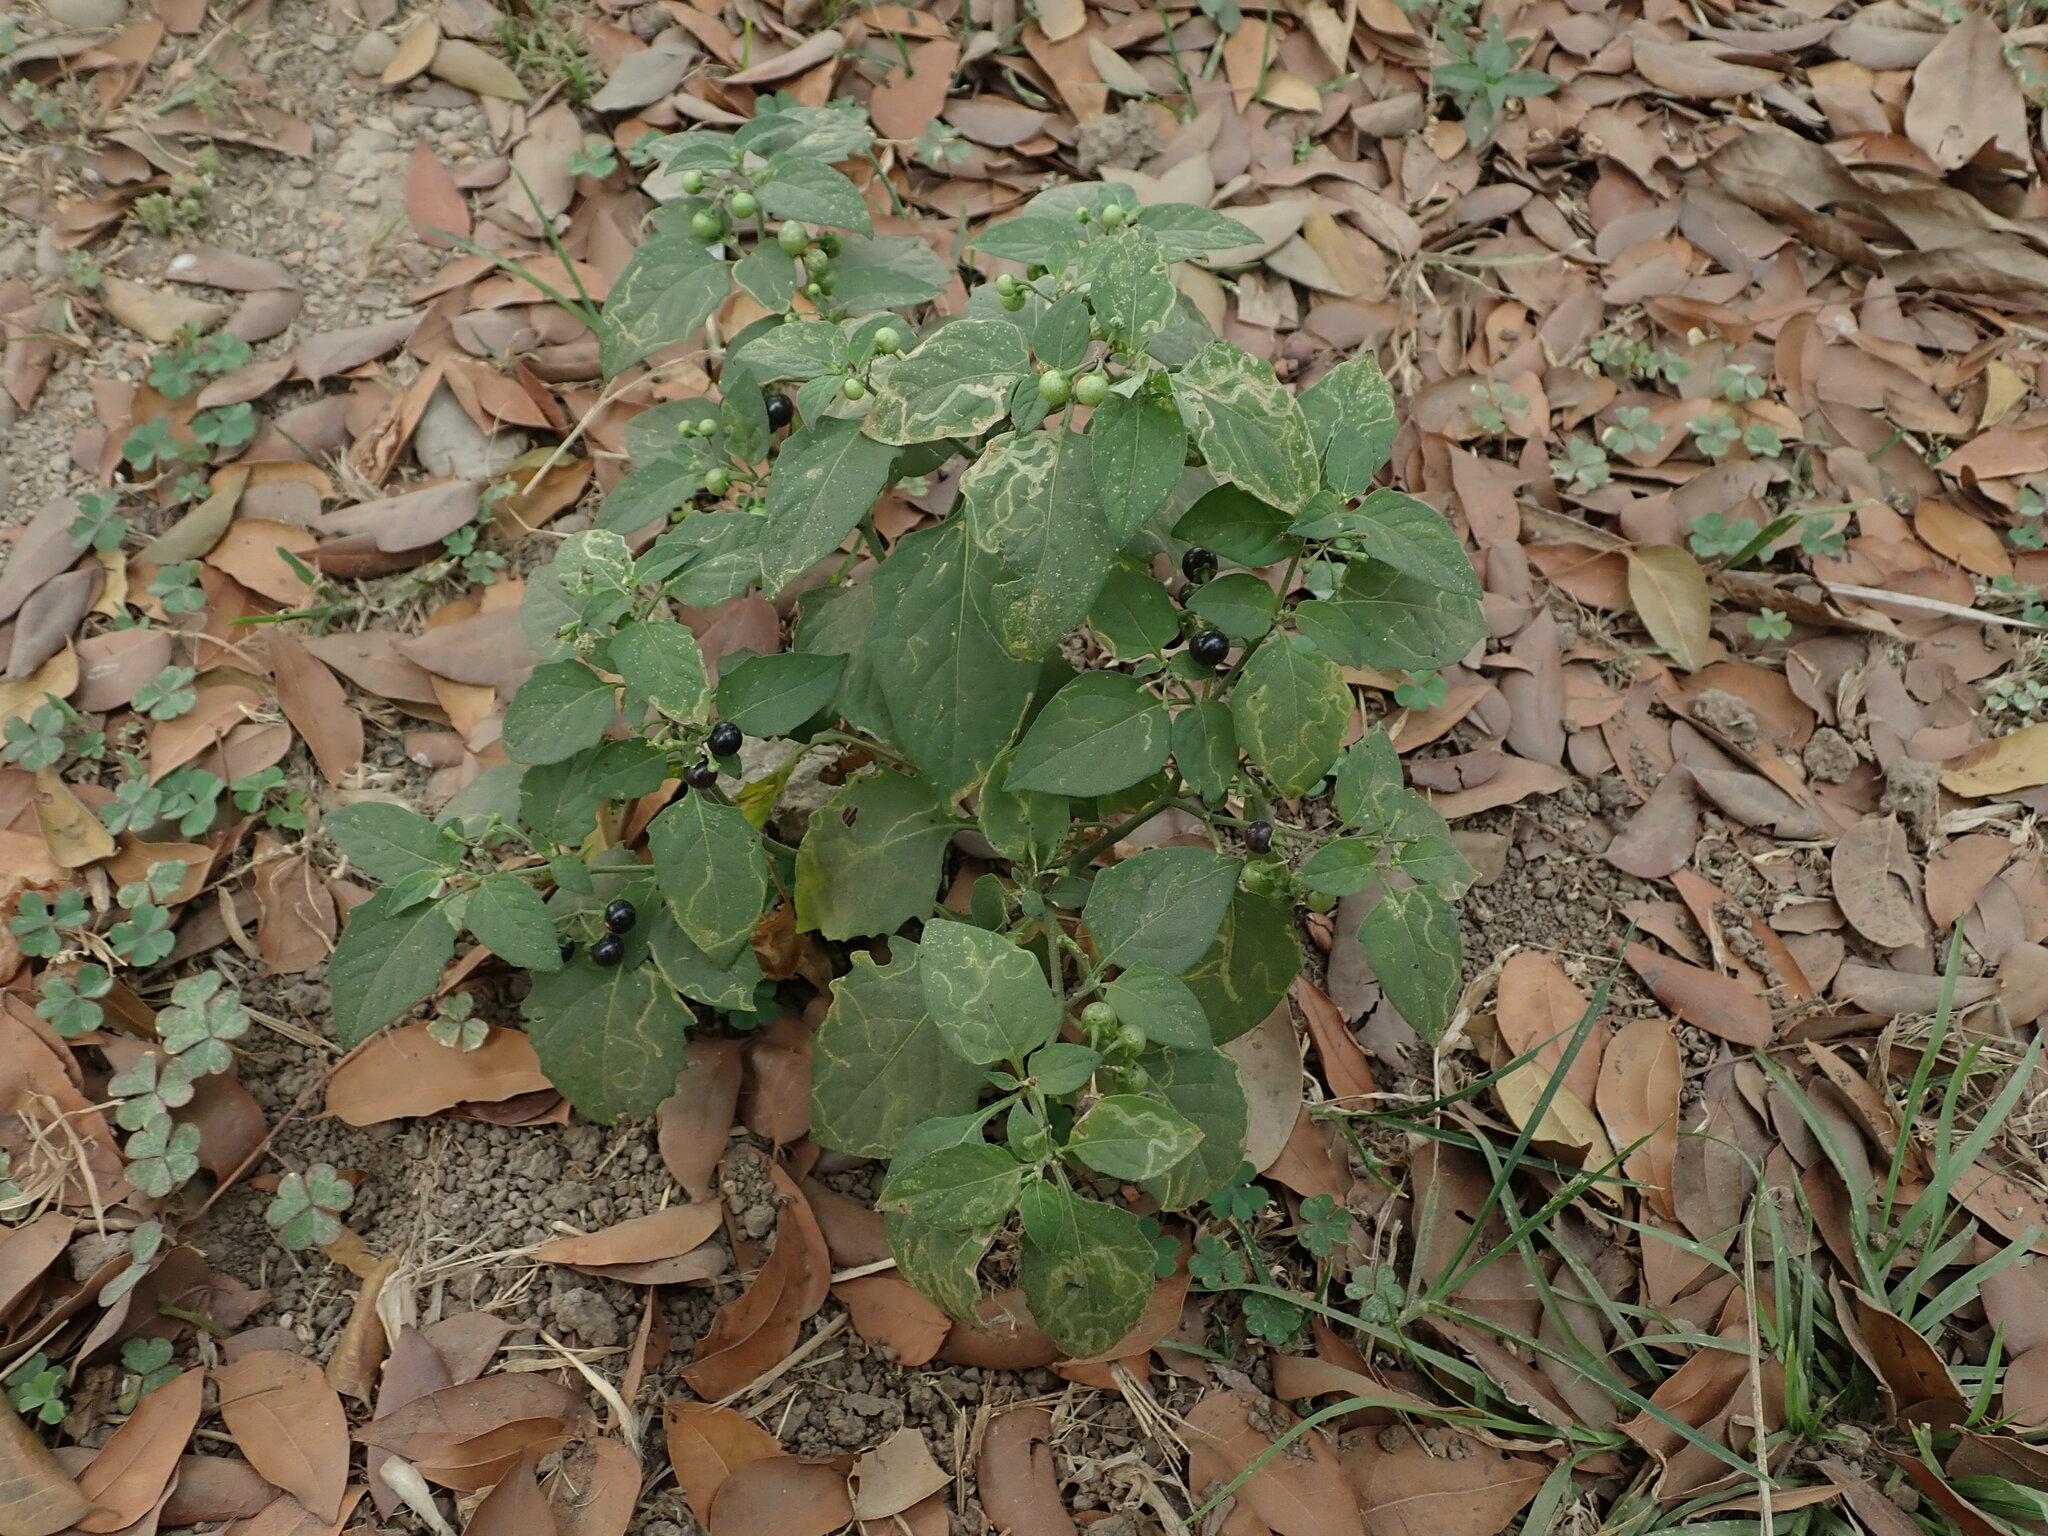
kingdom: Plantae
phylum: Tracheophyta
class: Magnoliopsida
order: Solanales
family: Solanaceae
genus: Solanum
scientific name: Solanum americanum
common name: American black nightshade
